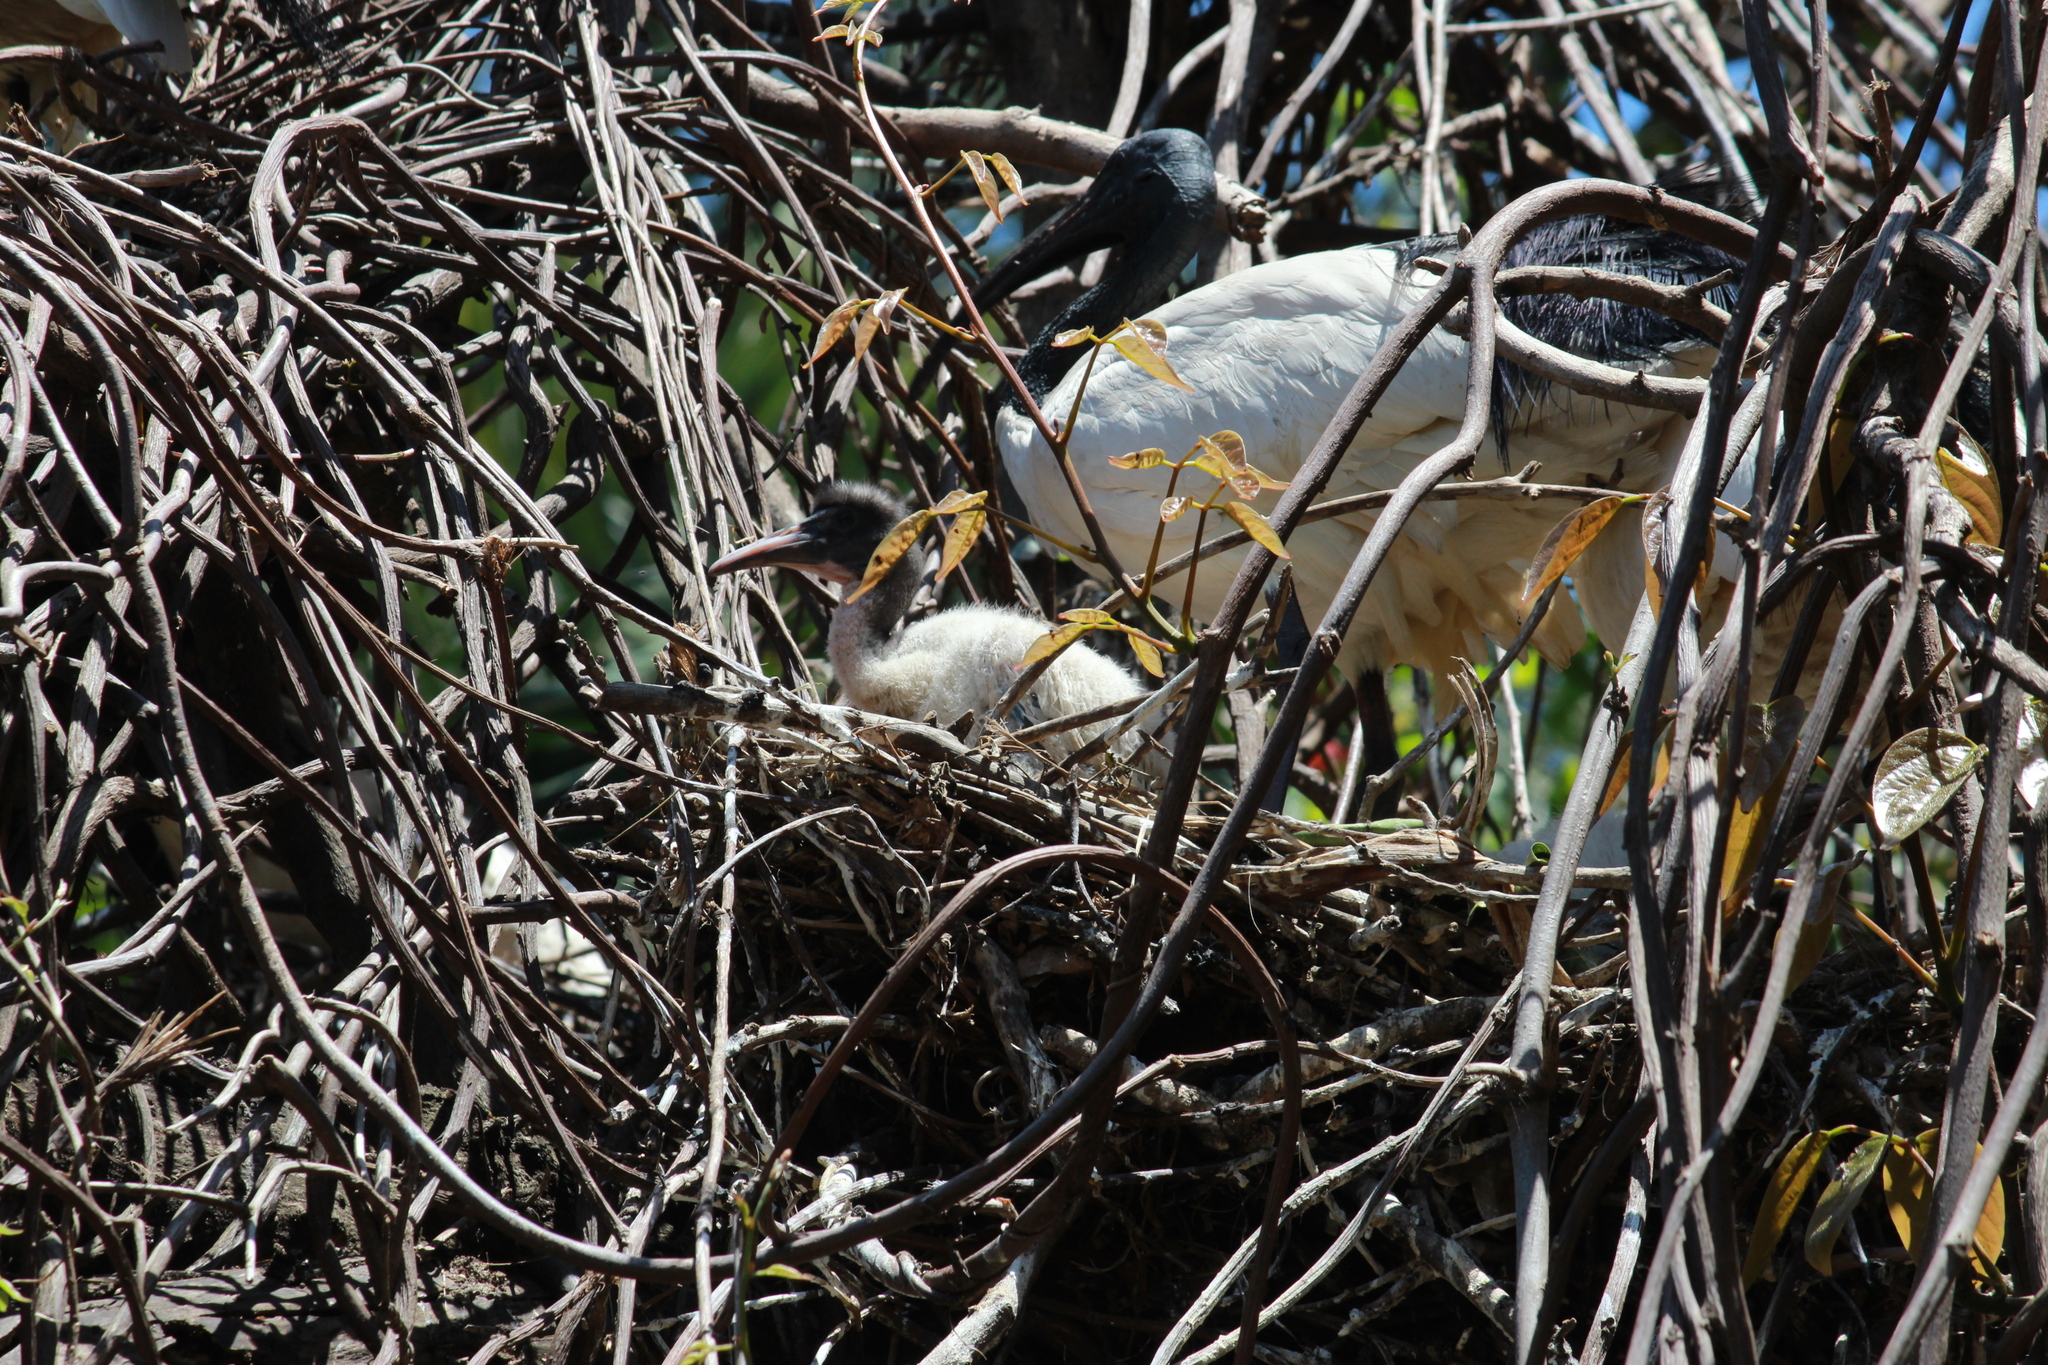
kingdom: Animalia
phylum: Chordata
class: Aves
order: Pelecaniformes
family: Threskiornithidae
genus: Threskiornis
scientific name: Threskiornis aethiopicus
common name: Sacred ibis
